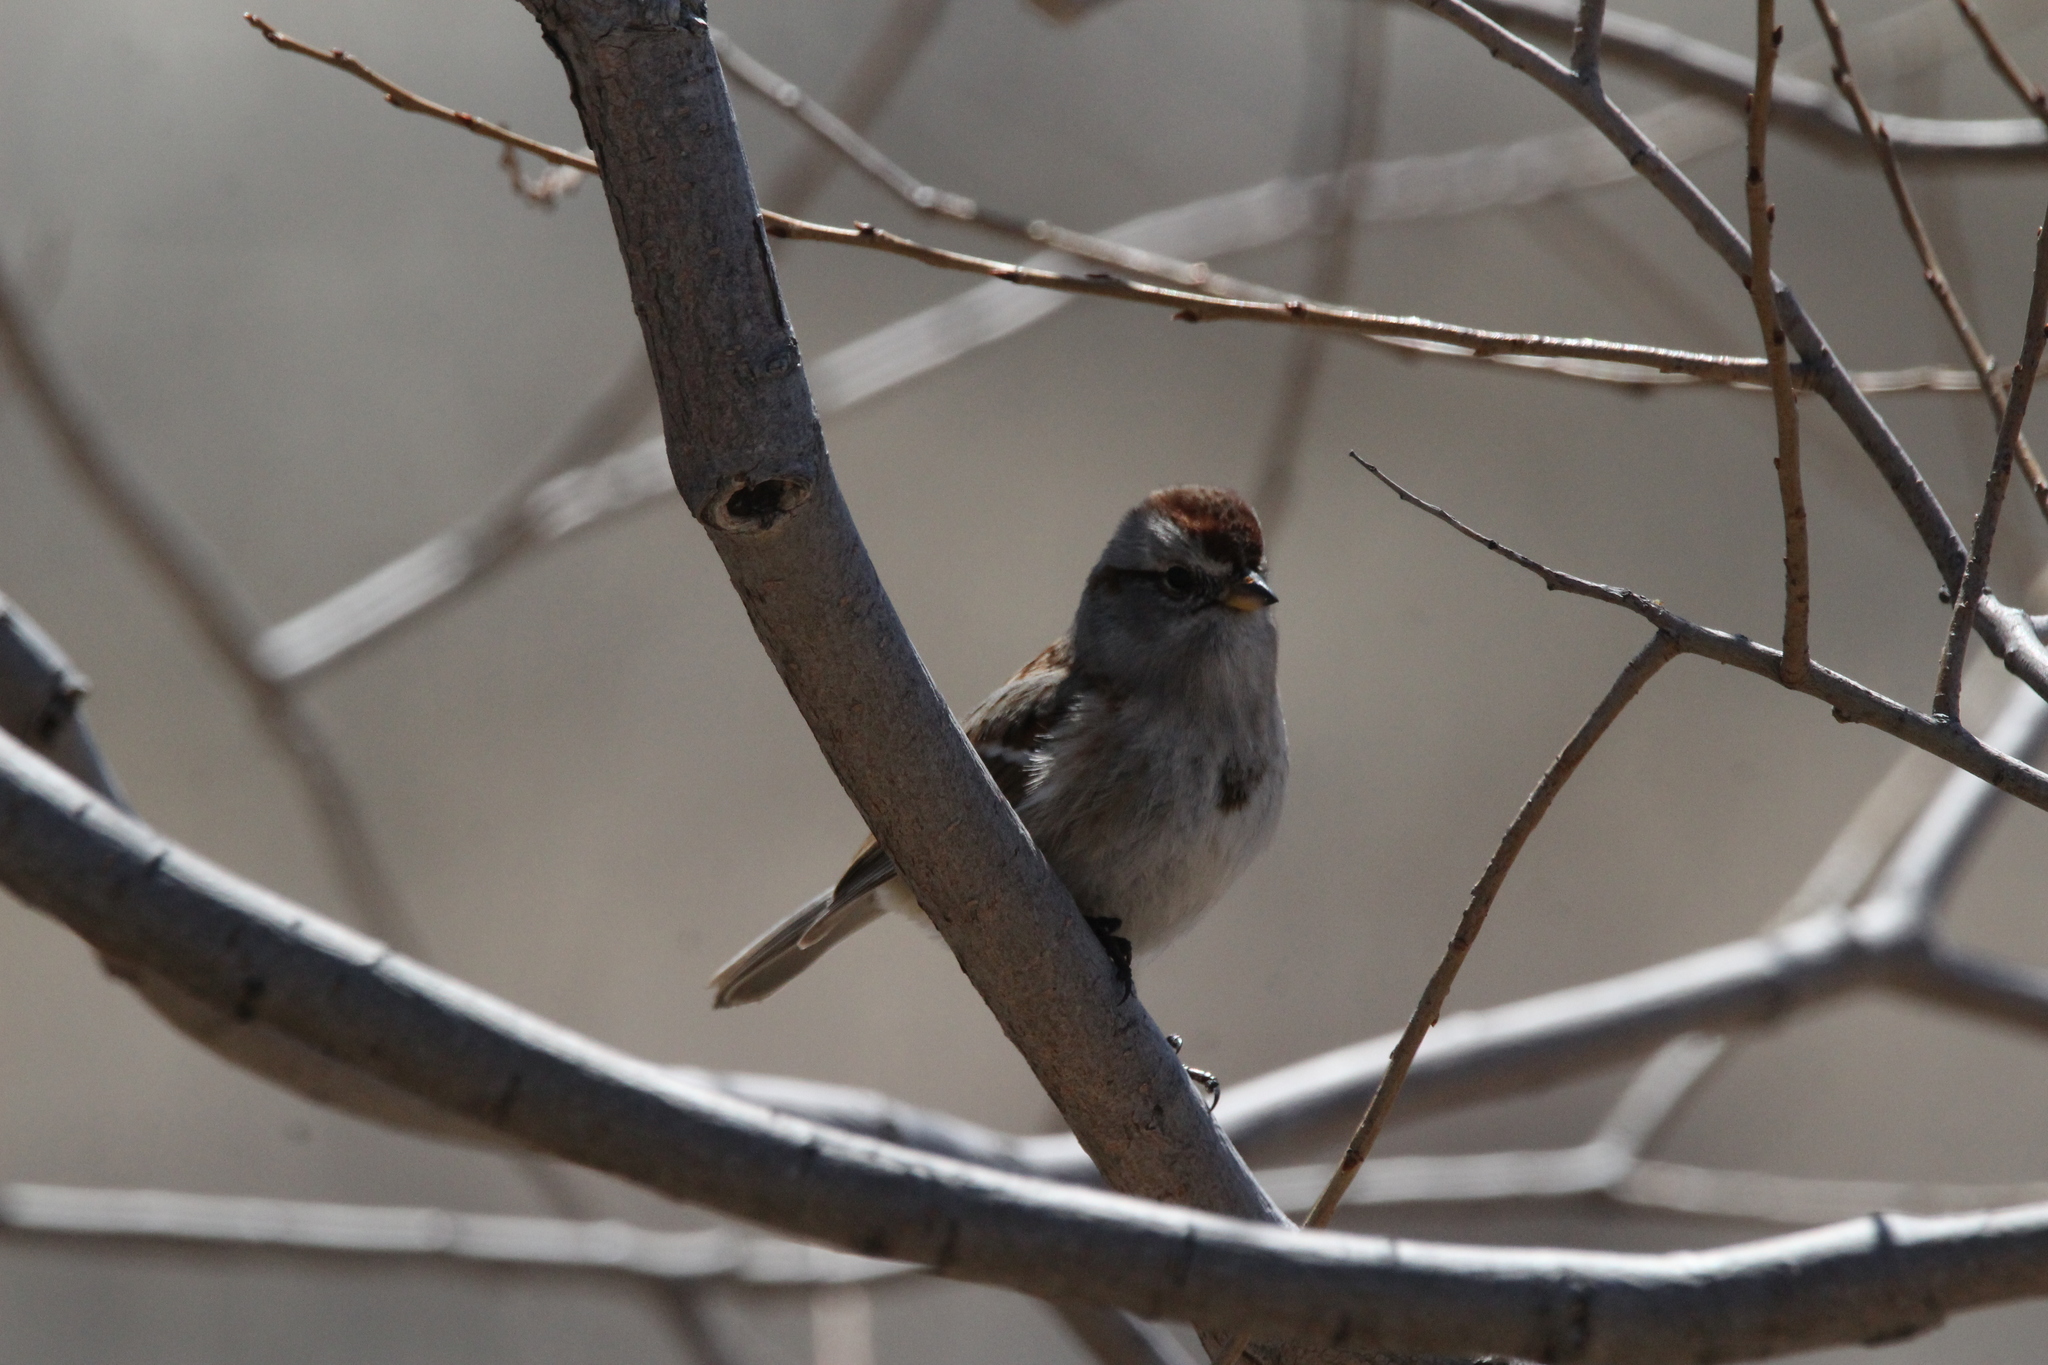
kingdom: Animalia
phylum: Chordata
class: Aves
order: Passeriformes
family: Passerellidae
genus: Spizelloides
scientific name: Spizelloides arborea
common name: American tree sparrow
